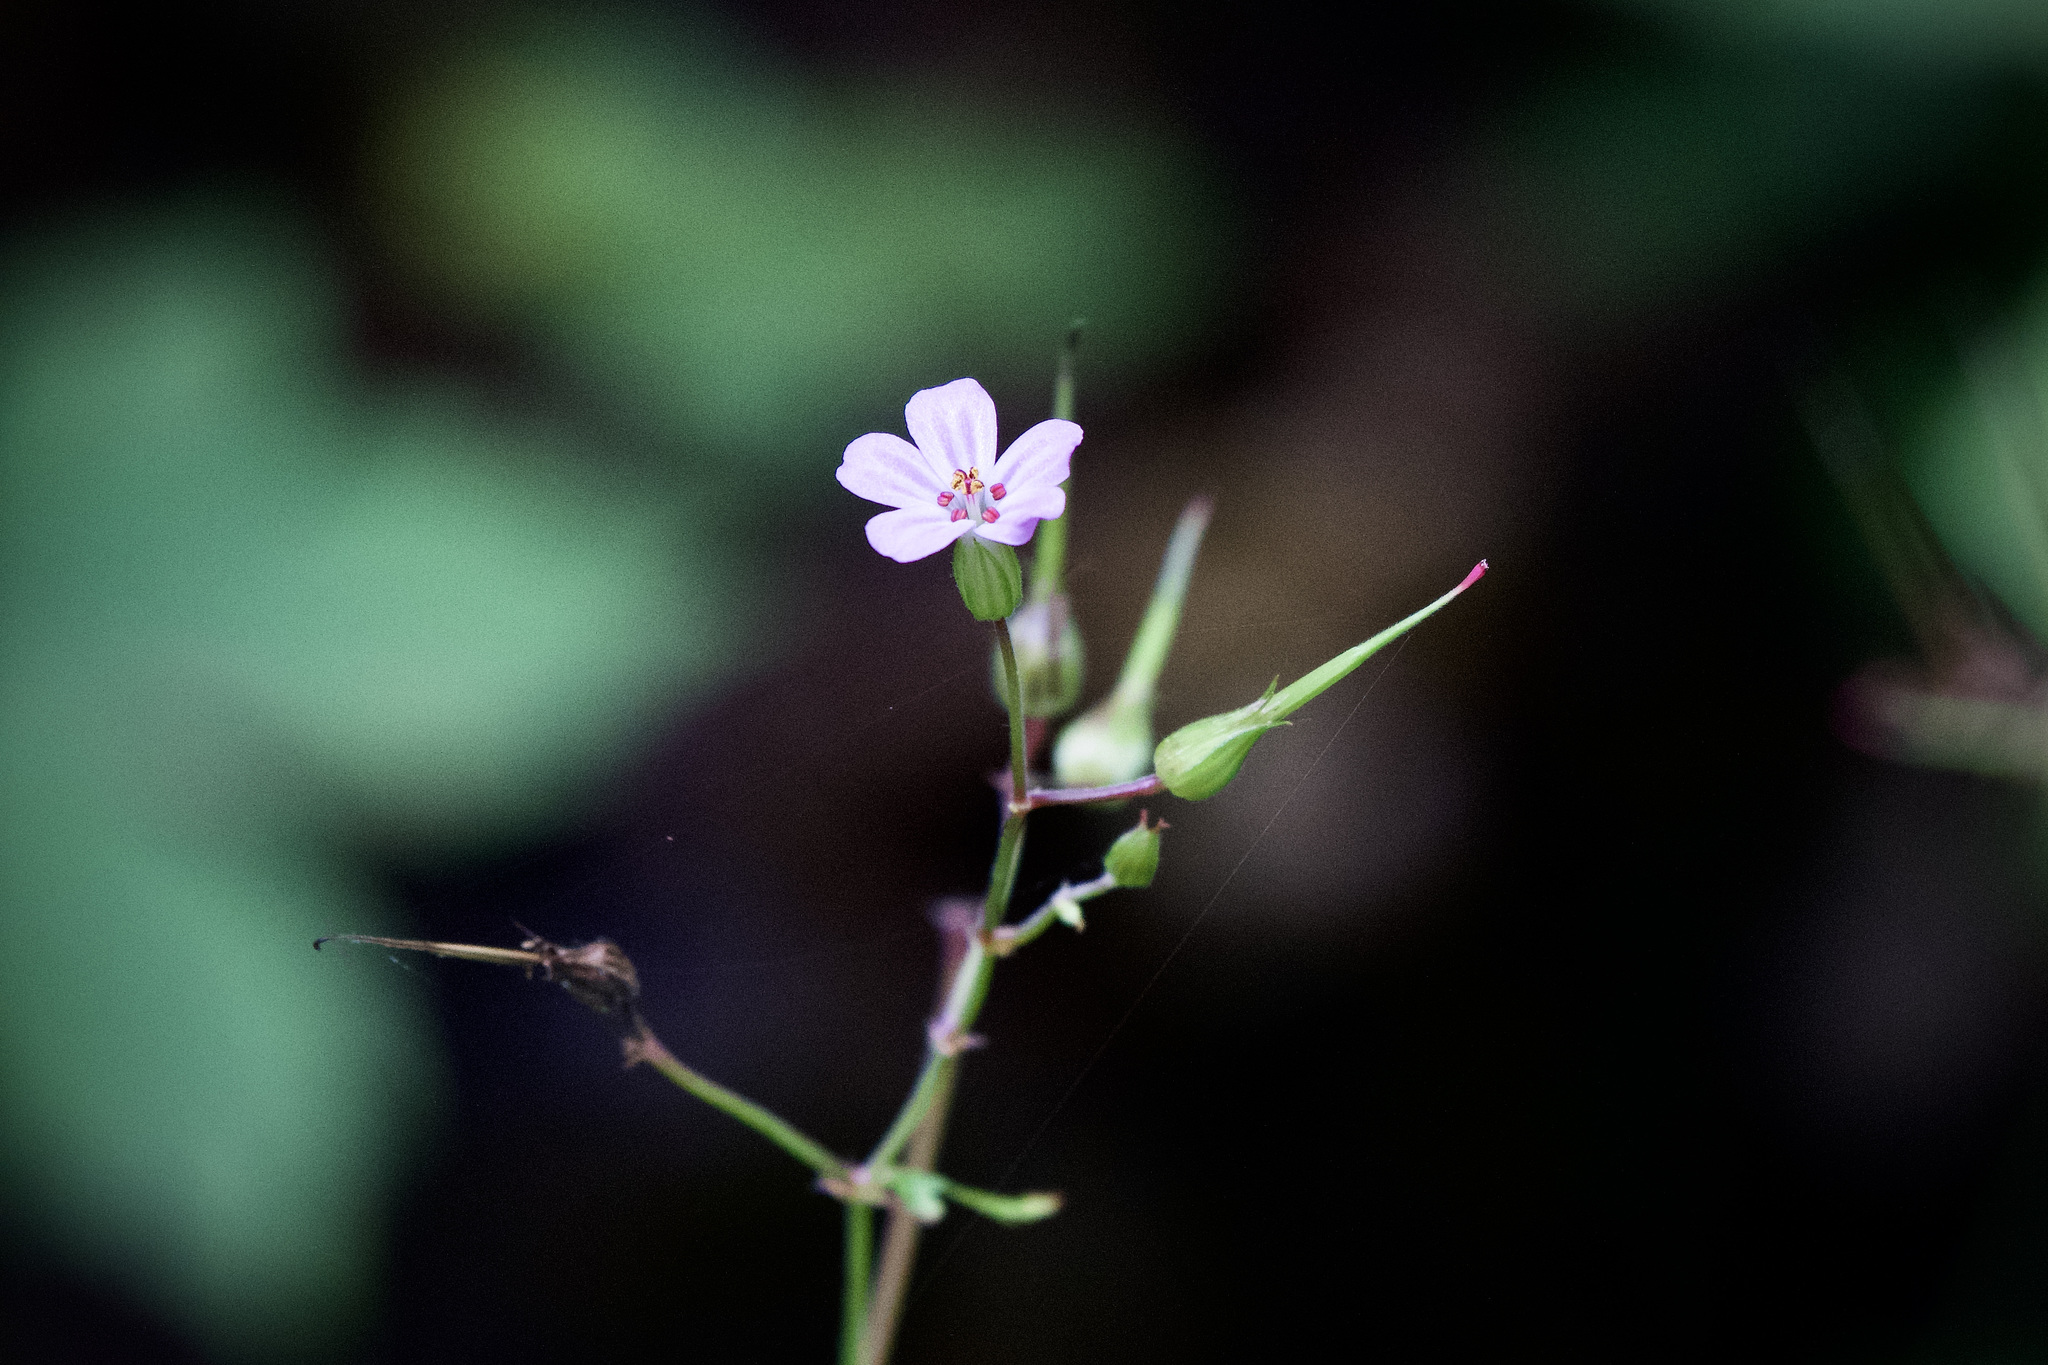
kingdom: Plantae
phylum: Tracheophyta
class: Magnoliopsida
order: Geraniales
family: Geraniaceae
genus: Geranium
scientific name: Geranium robertianum
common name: Herb-robert
